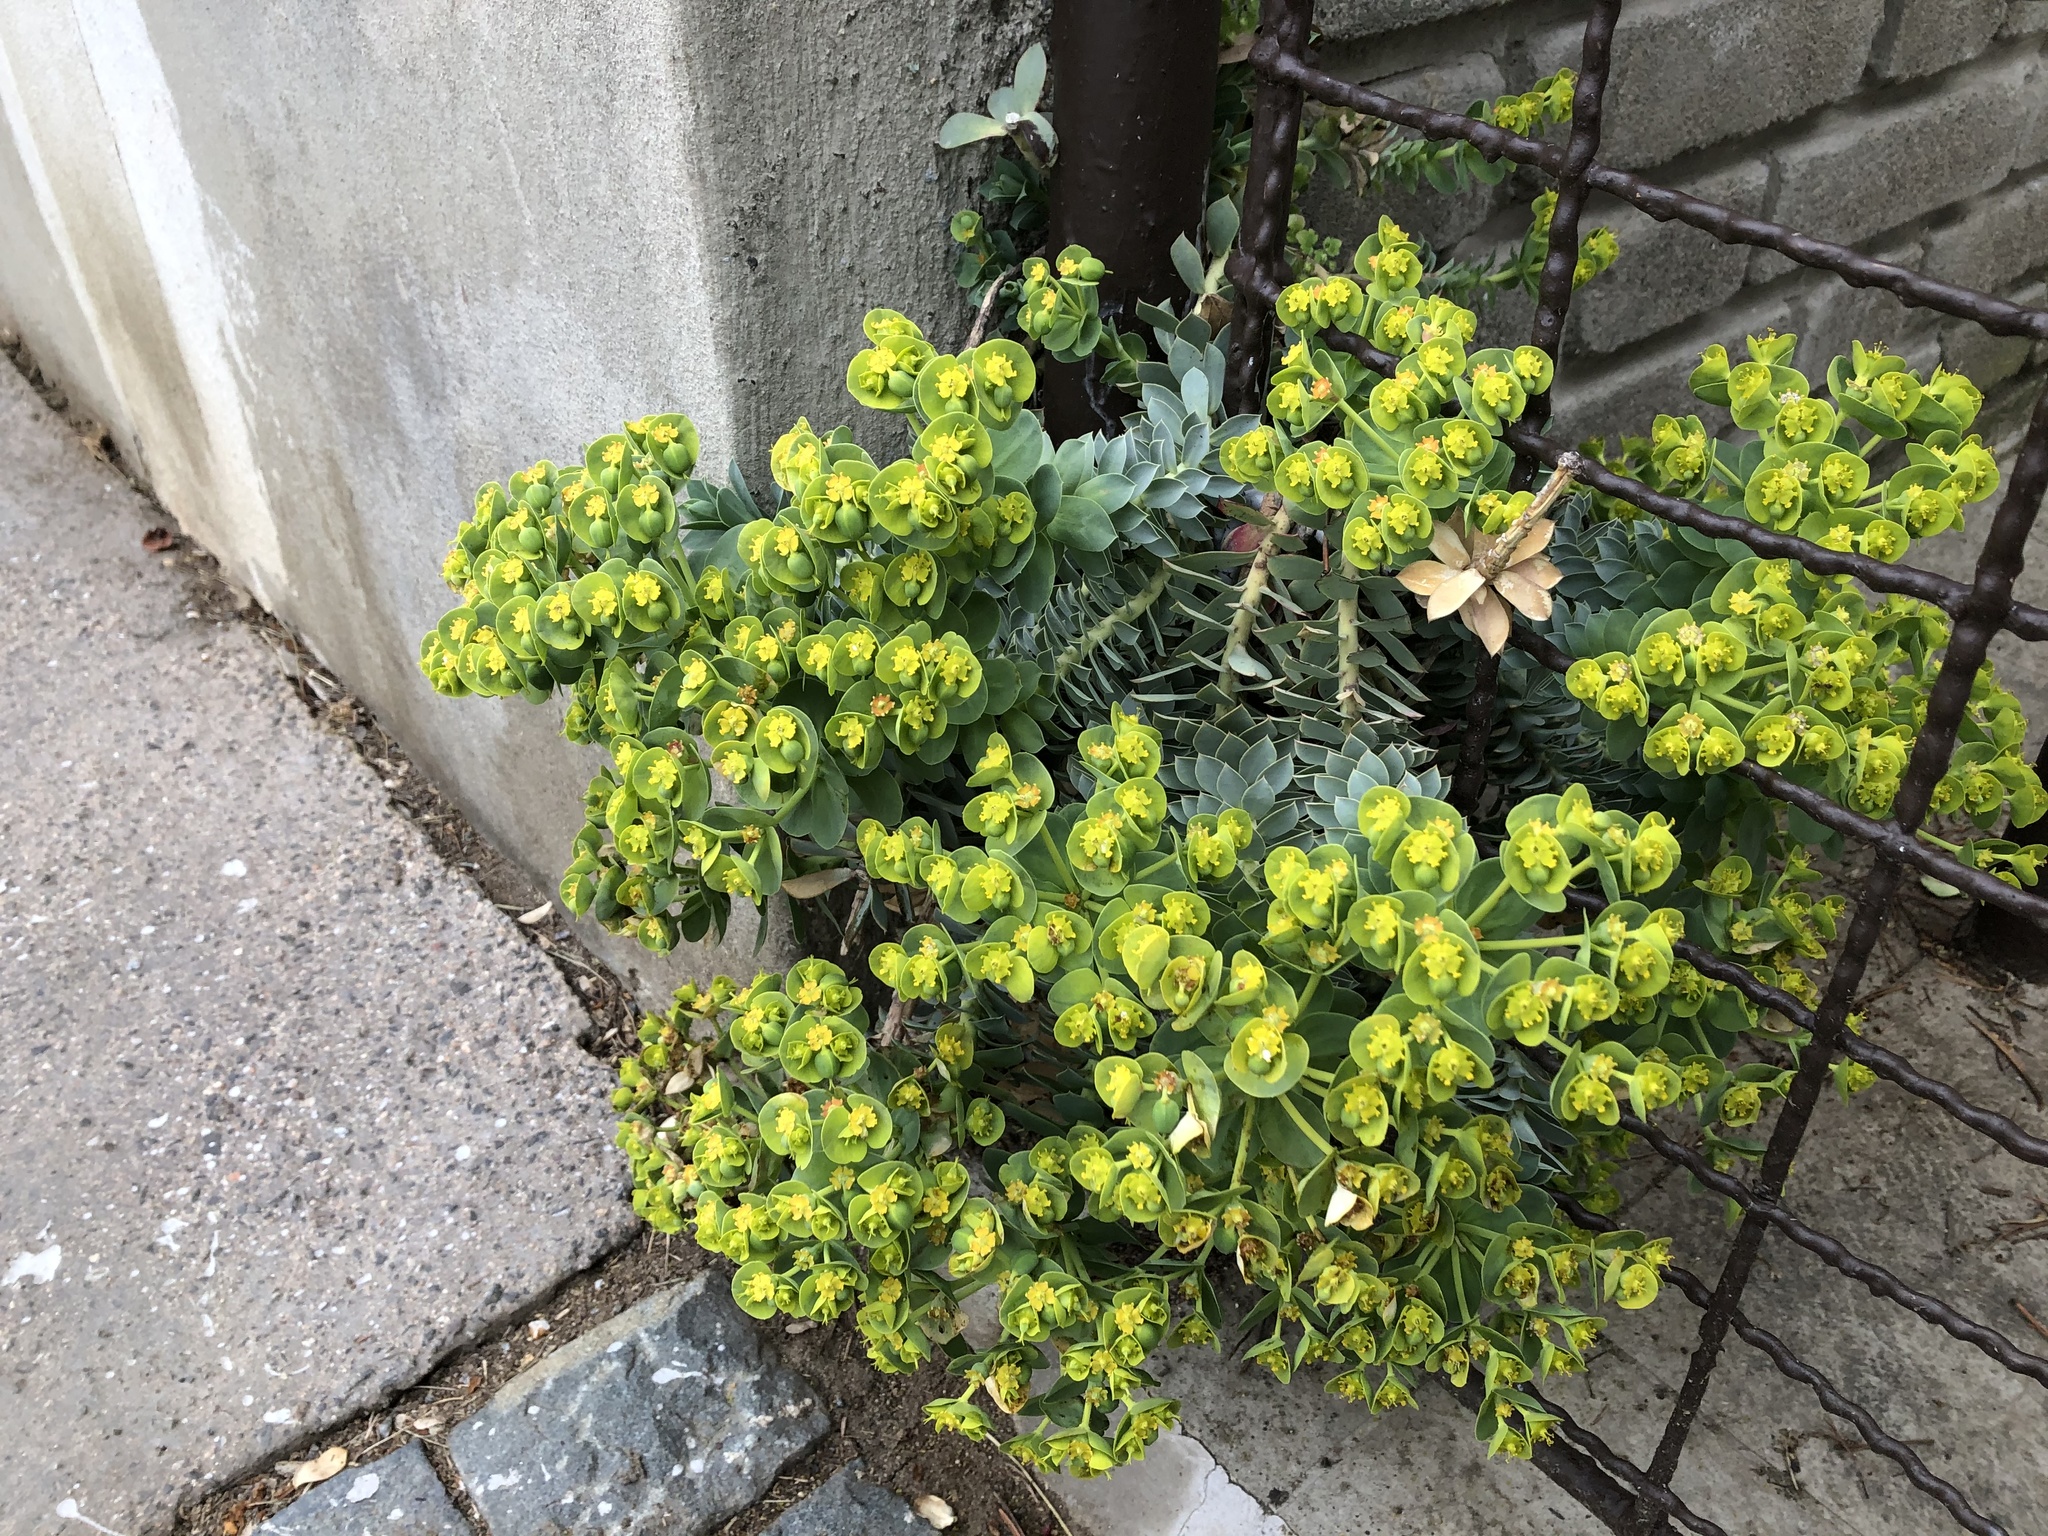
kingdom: Plantae
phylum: Tracheophyta
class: Magnoliopsida
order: Malpighiales
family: Euphorbiaceae
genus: Euphorbia
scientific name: Euphorbia myrsinites
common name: Myrtle spurge
